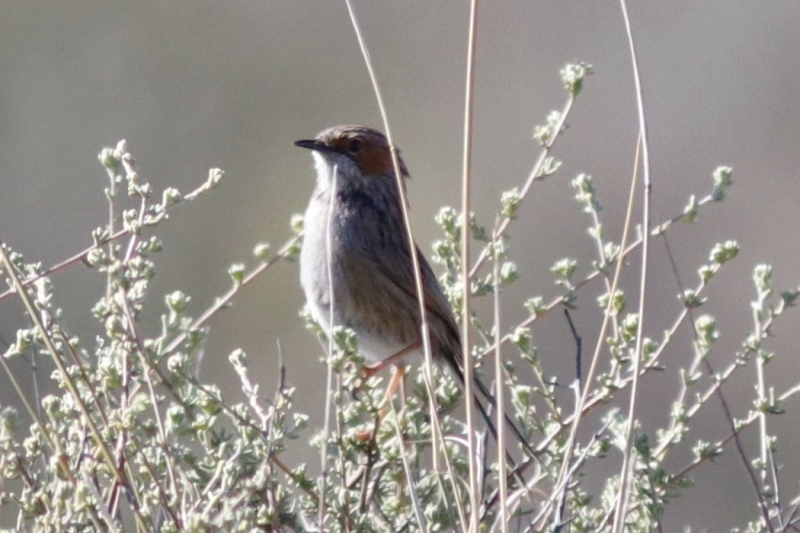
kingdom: Animalia
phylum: Chordata
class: Aves
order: Passeriformes
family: Cisticolidae
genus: Malcorus
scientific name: Malcorus pectoralis
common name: Rufous-eared warbler
